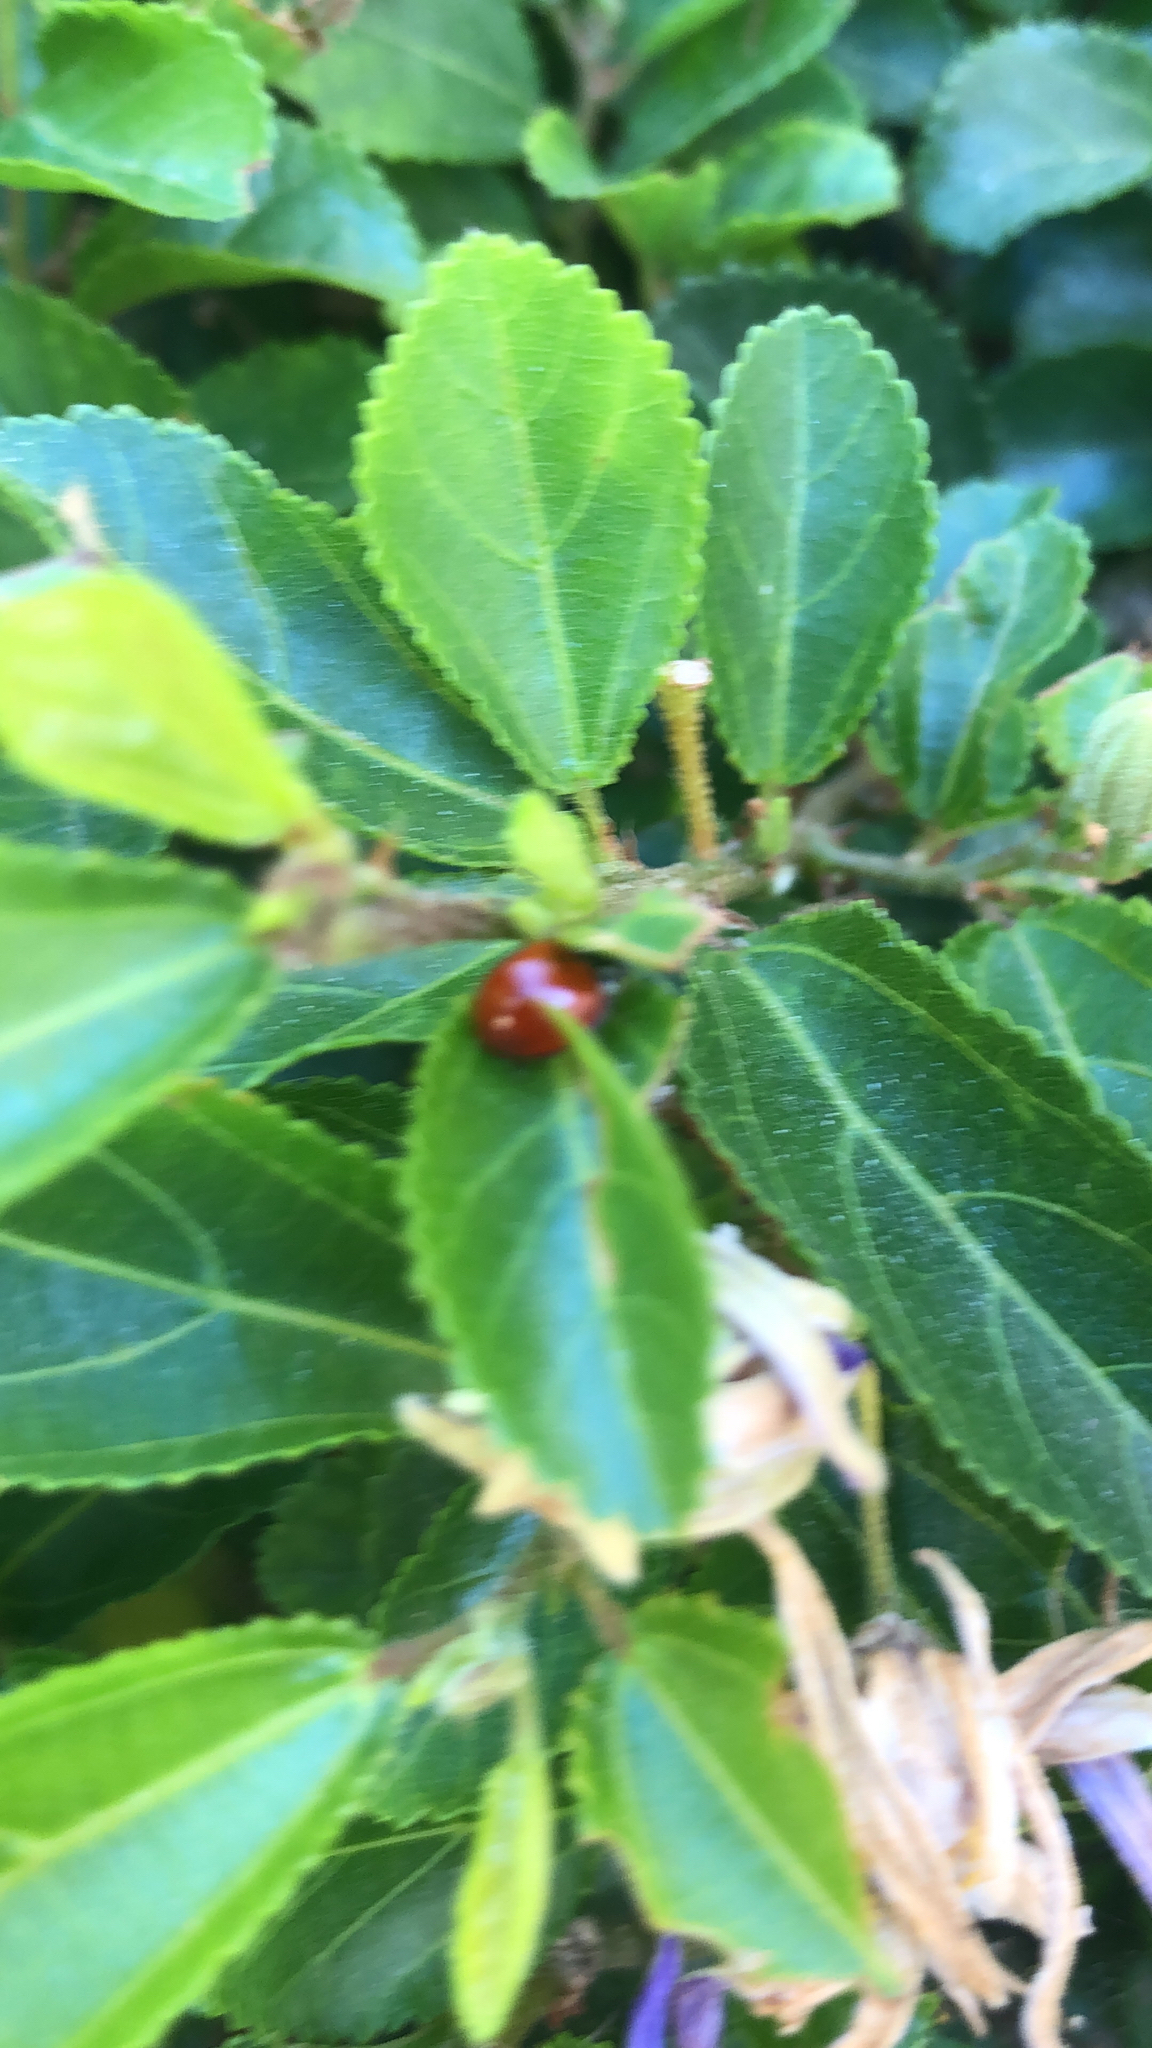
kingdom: Animalia
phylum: Arthropoda
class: Insecta
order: Coleoptera
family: Coccinellidae
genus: Cycloneda
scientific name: Cycloneda
